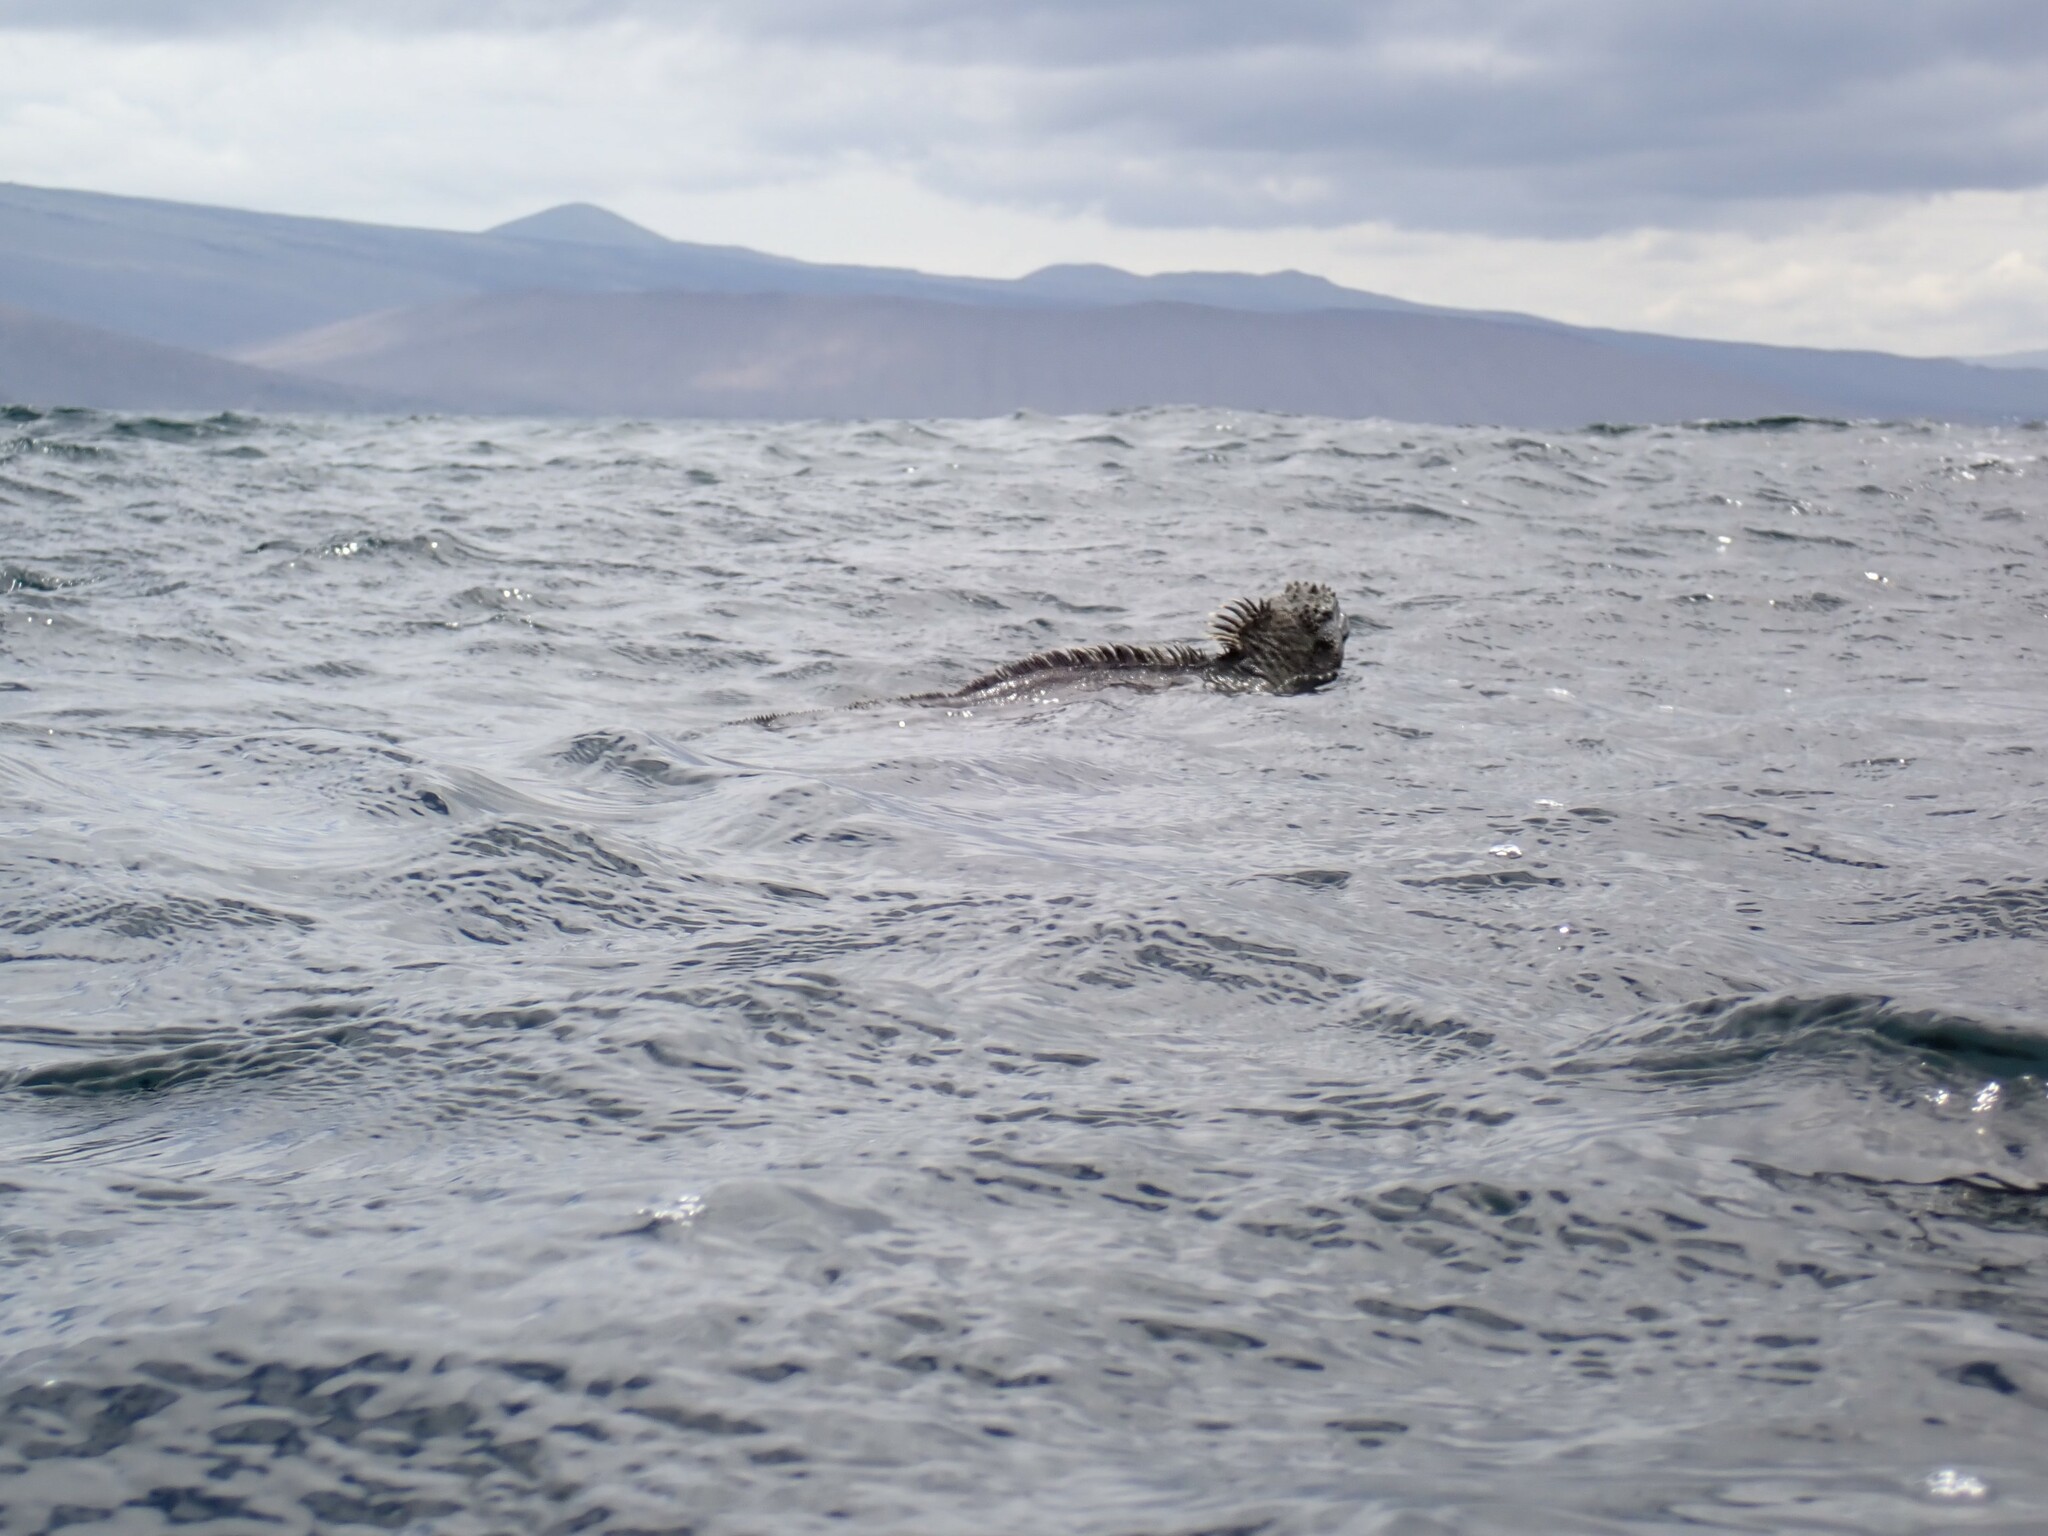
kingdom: Animalia
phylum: Chordata
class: Squamata
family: Iguanidae
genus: Amblyrhynchus
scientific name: Amblyrhynchus cristatus
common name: Marine iguana
